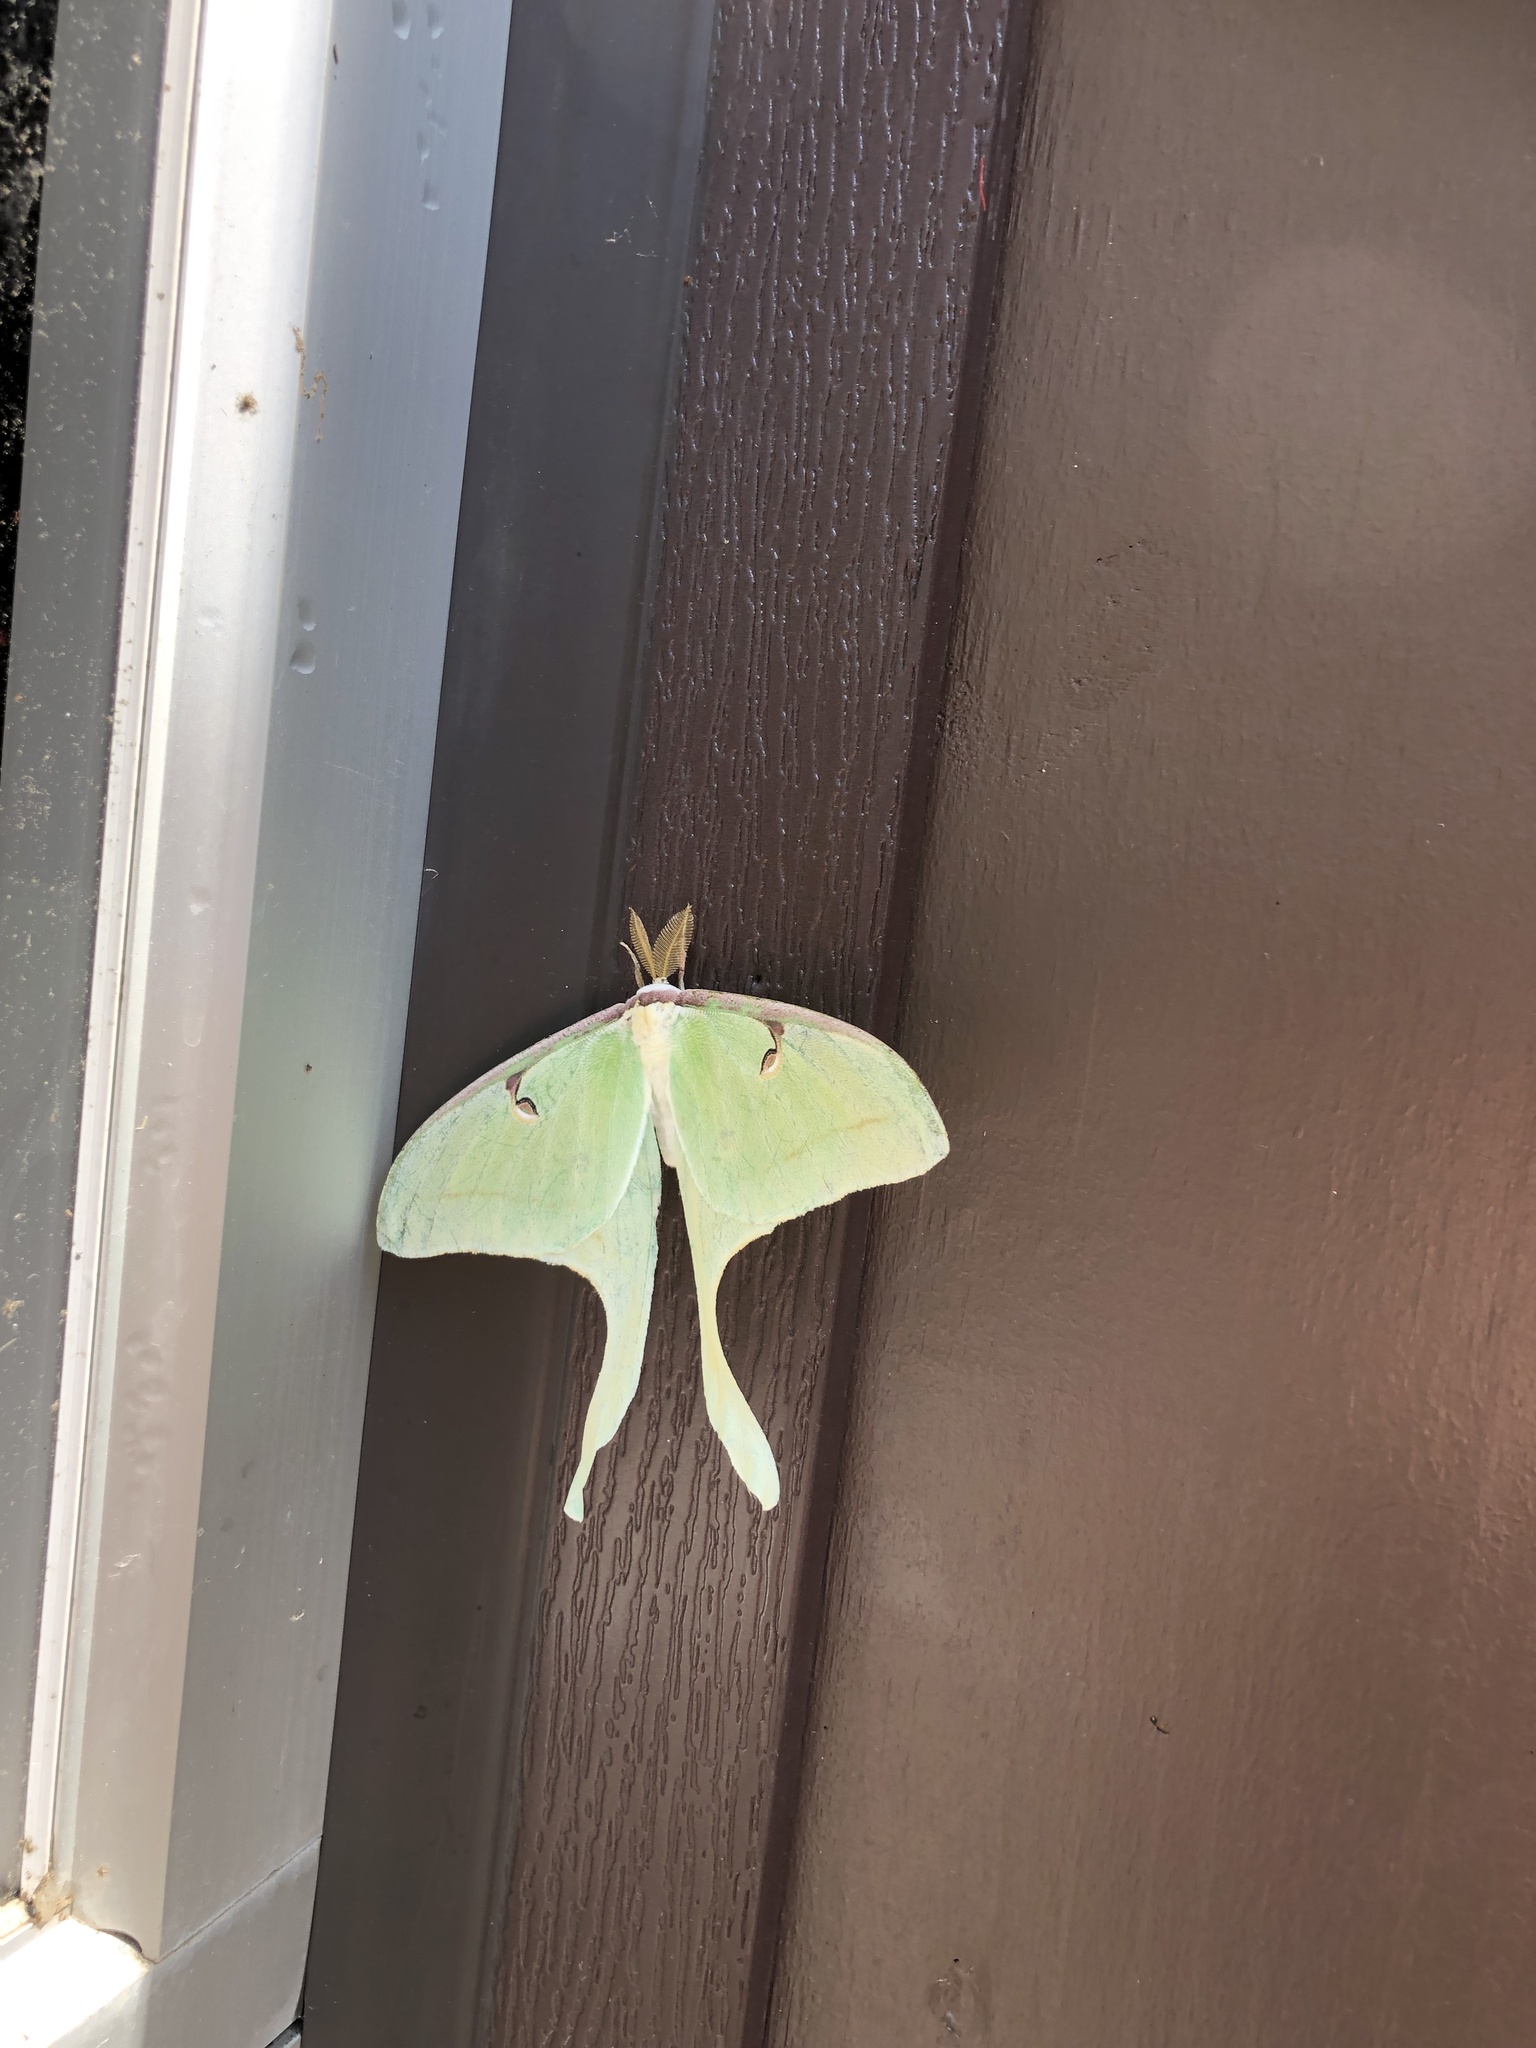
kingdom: Animalia
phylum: Arthropoda
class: Insecta
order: Lepidoptera
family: Saturniidae
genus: Actias
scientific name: Actias luna
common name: Luna moth
